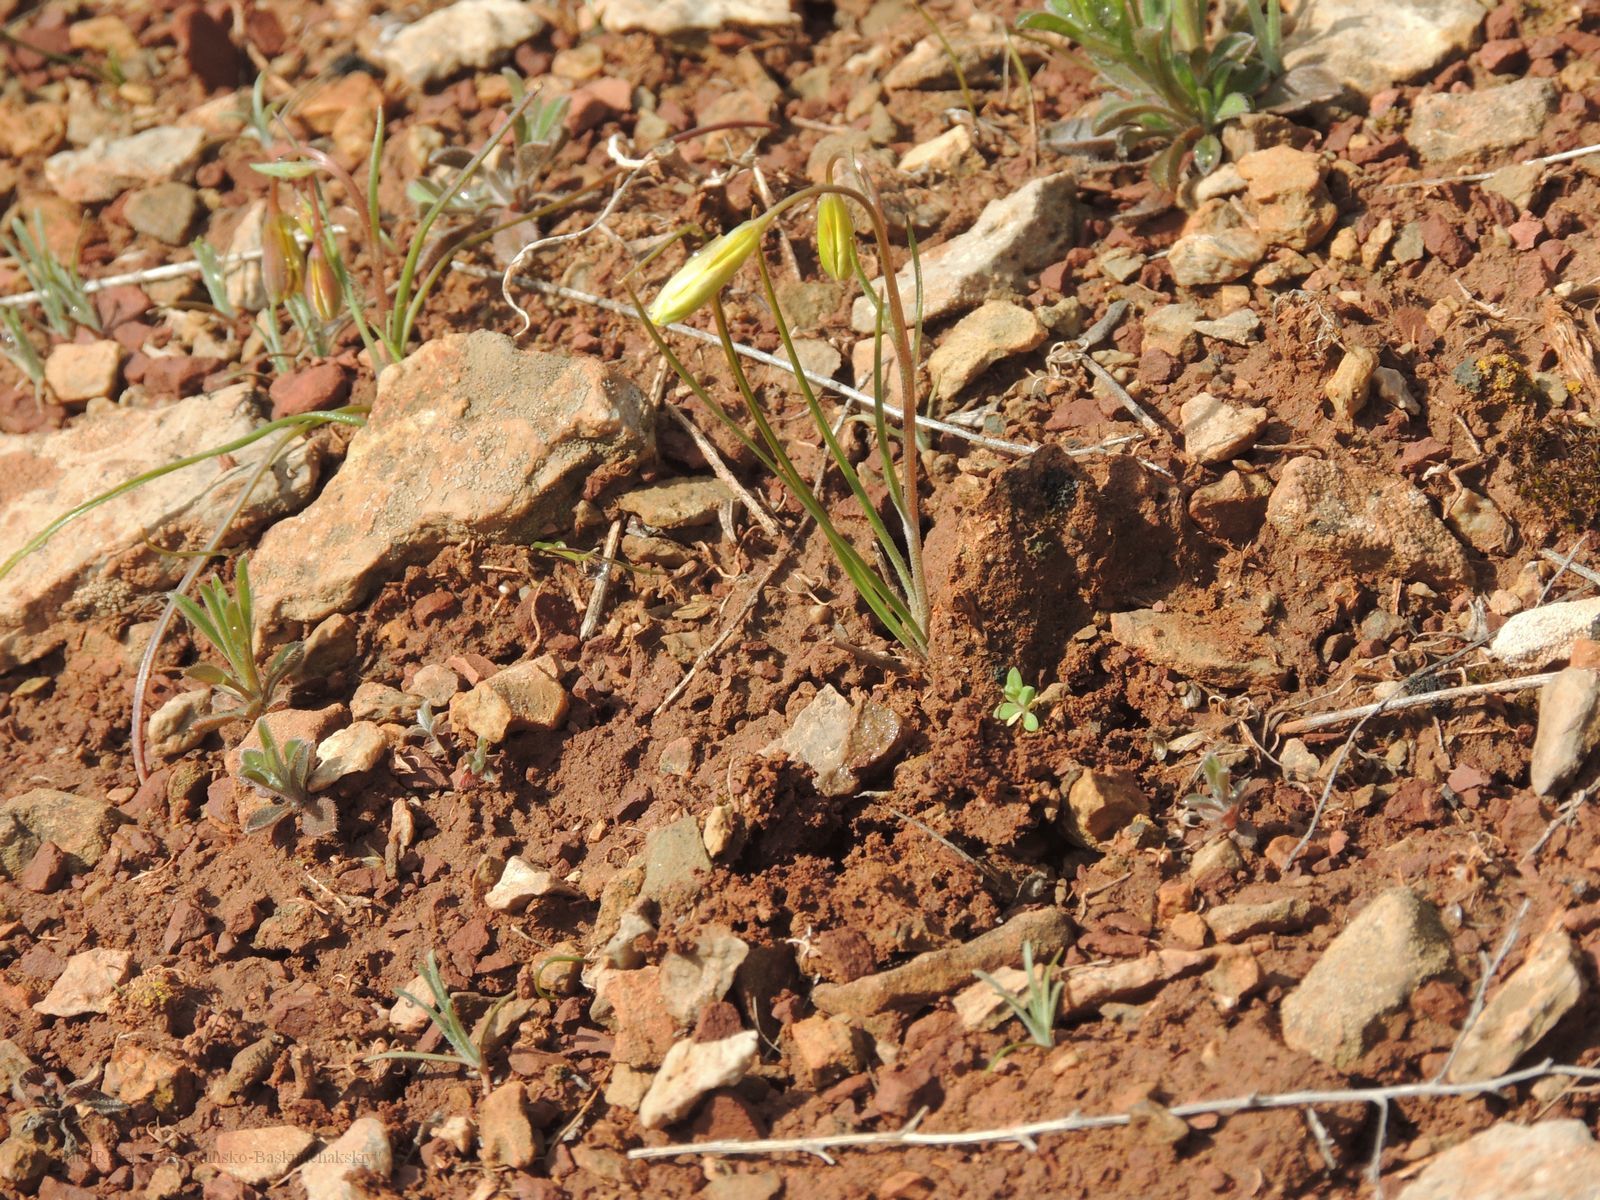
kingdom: Plantae
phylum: Tracheophyta
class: Liliopsida
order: Liliales
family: Liliaceae
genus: Gagea
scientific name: Gagea bulbifera
